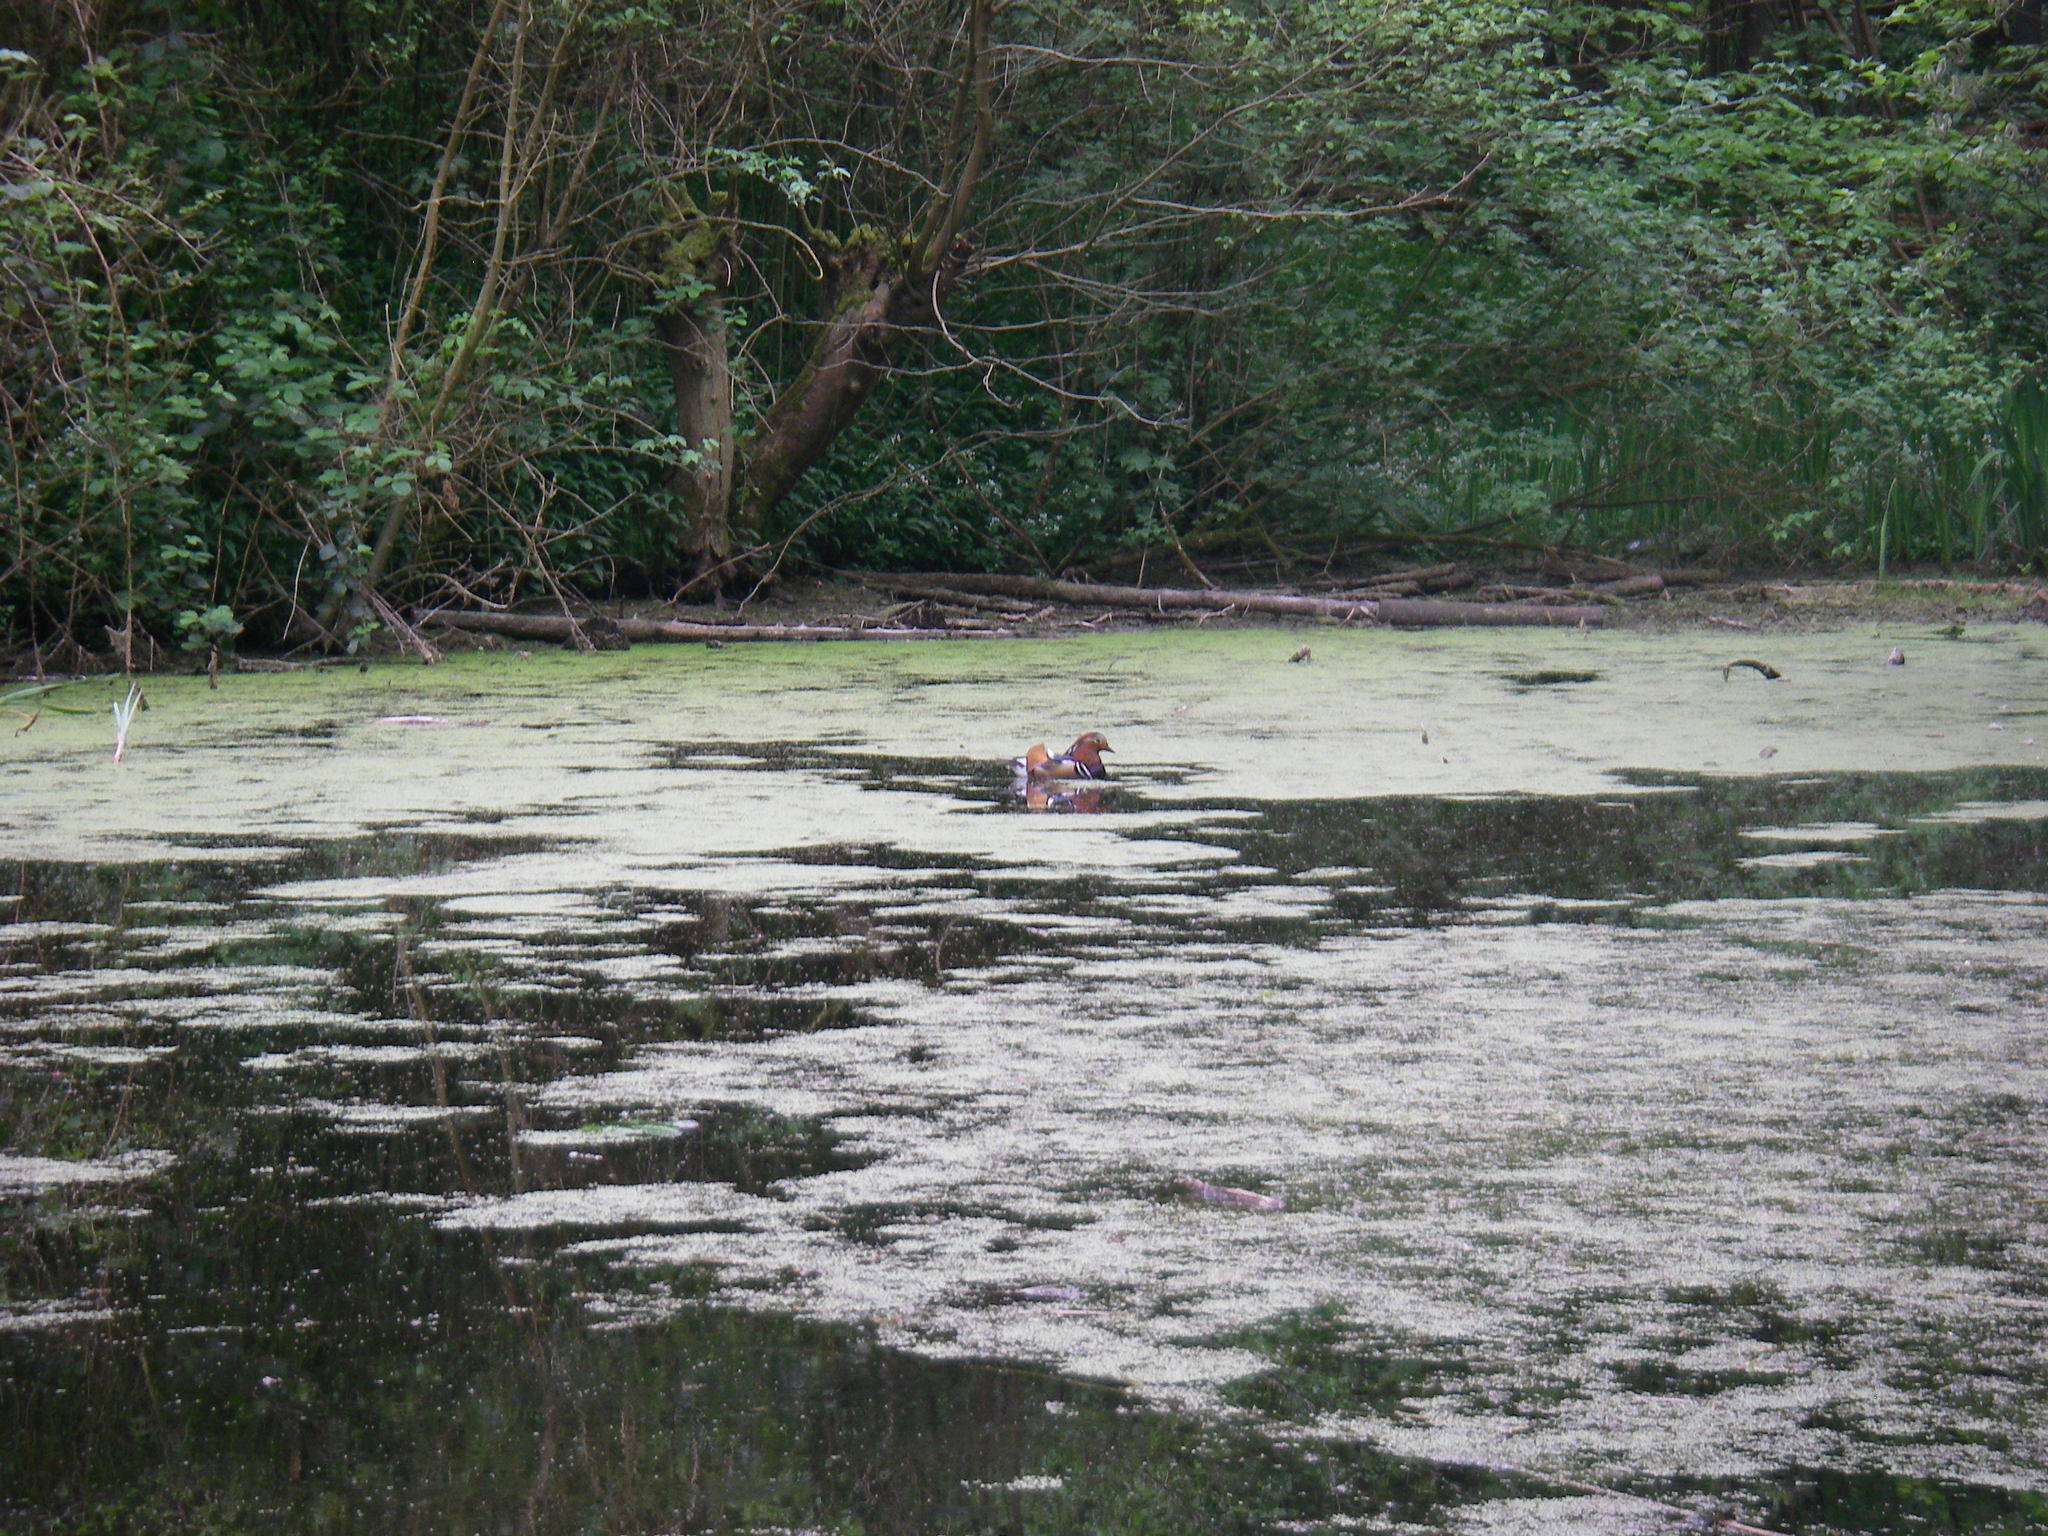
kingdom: Animalia
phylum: Chordata
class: Aves
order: Anseriformes
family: Anatidae
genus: Aix
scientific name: Aix galericulata
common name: Mandarin duck
